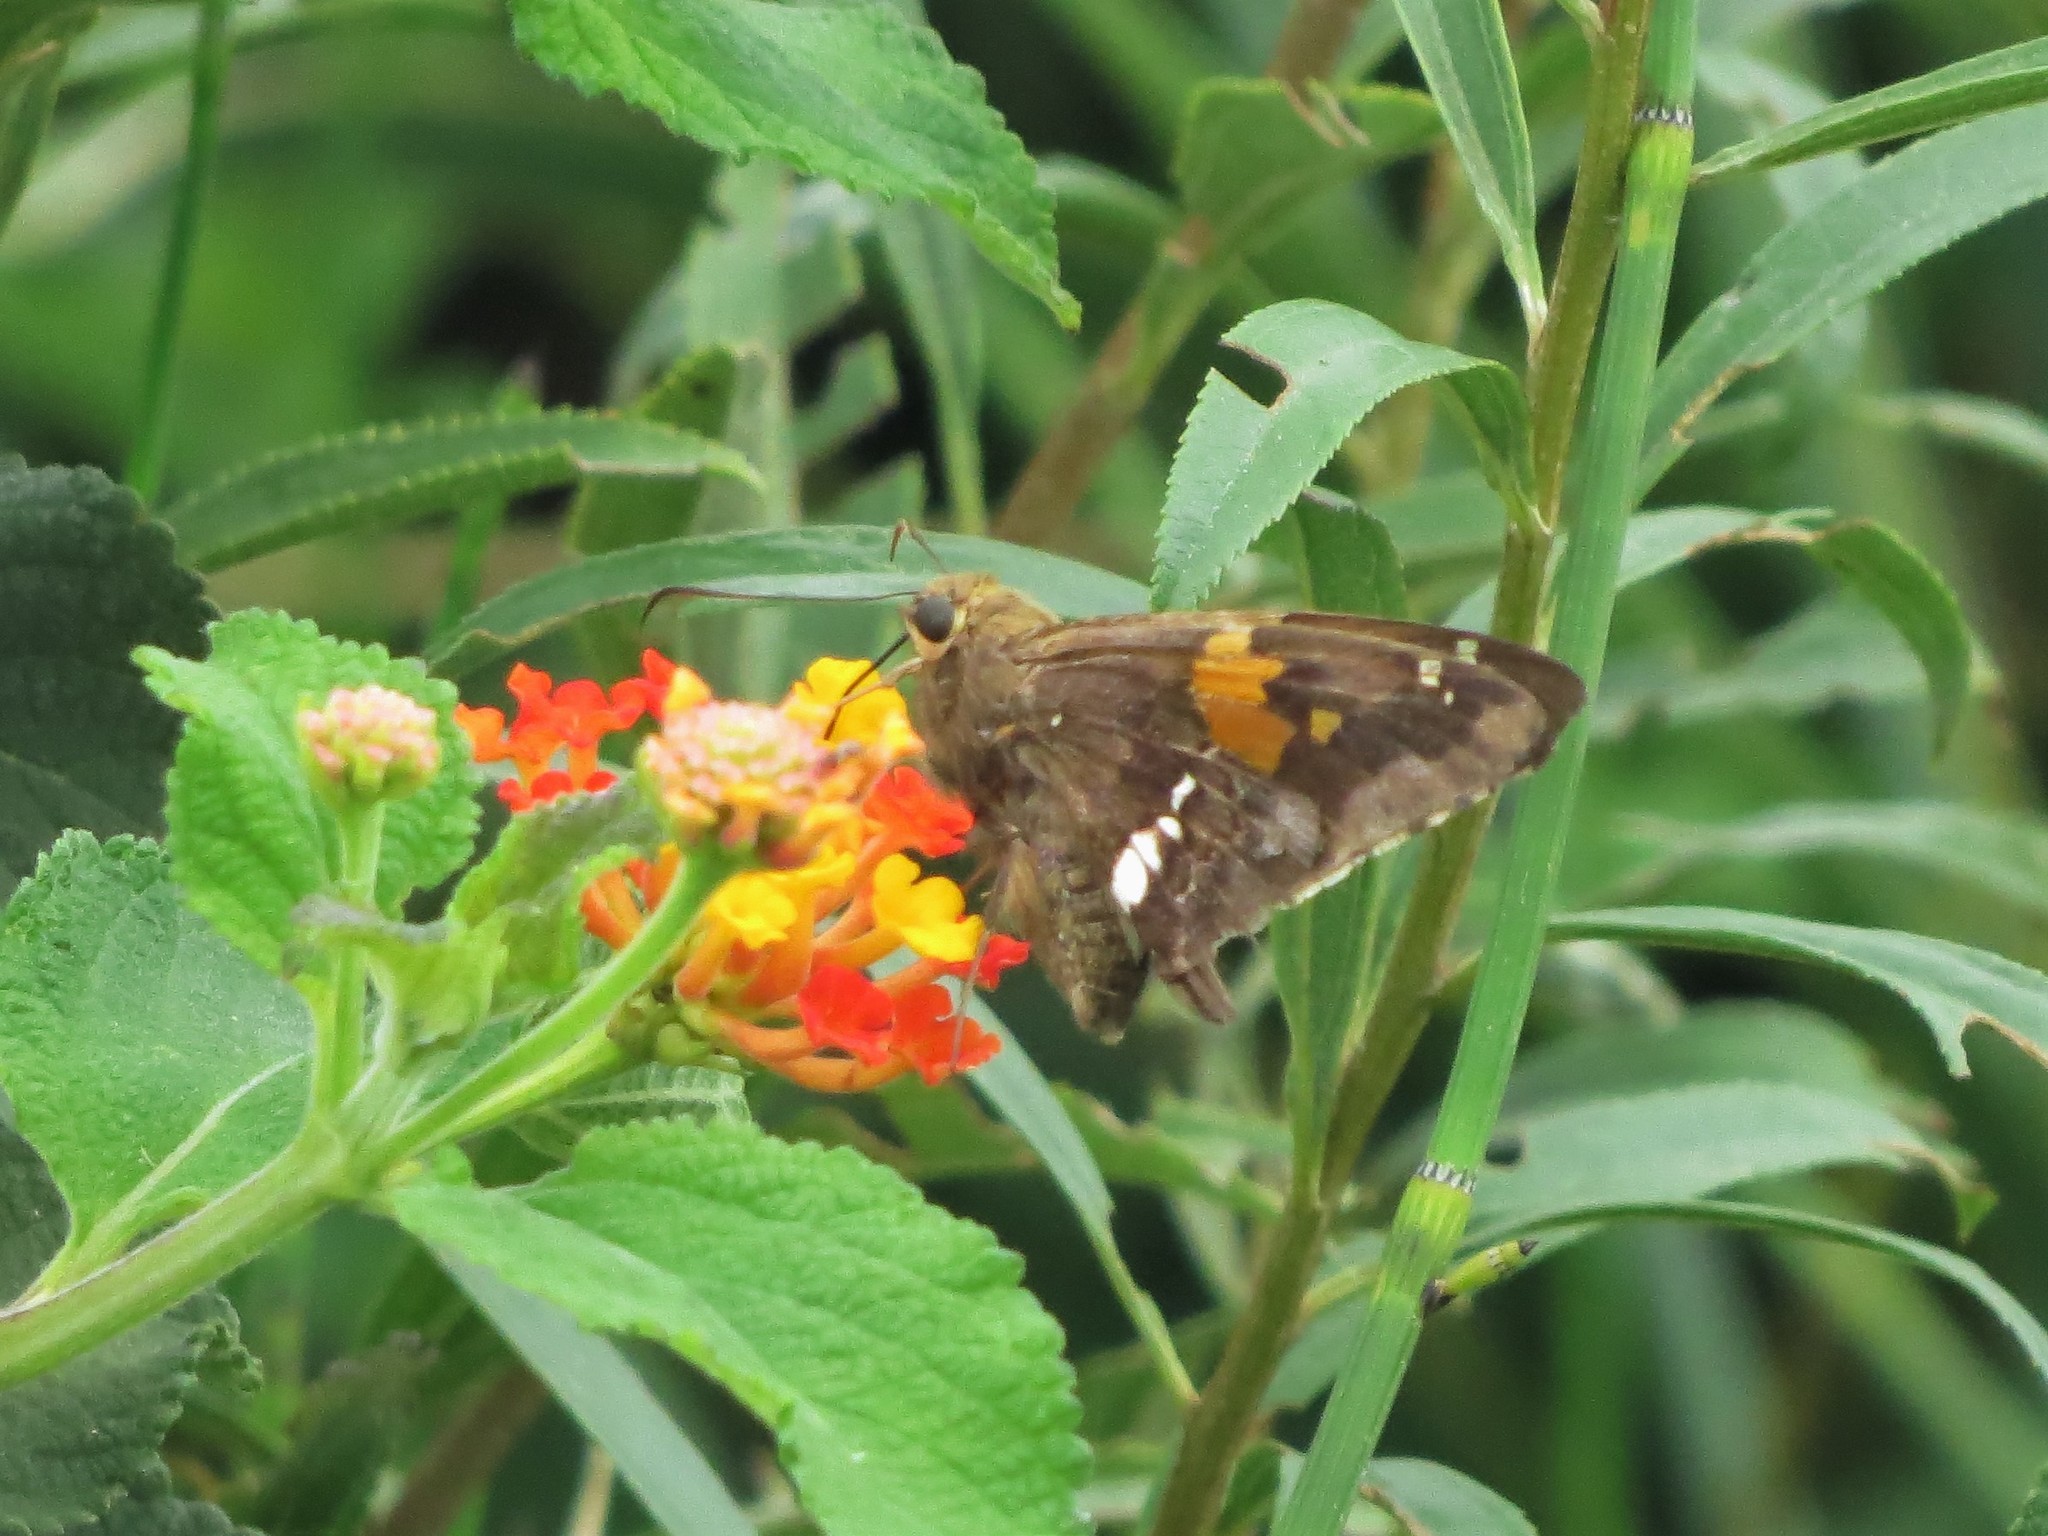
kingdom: Animalia
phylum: Arthropoda
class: Insecta
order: Lepidoptera
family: Hesperiidae
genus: Epargyreus
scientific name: Epargyreus tmolis
